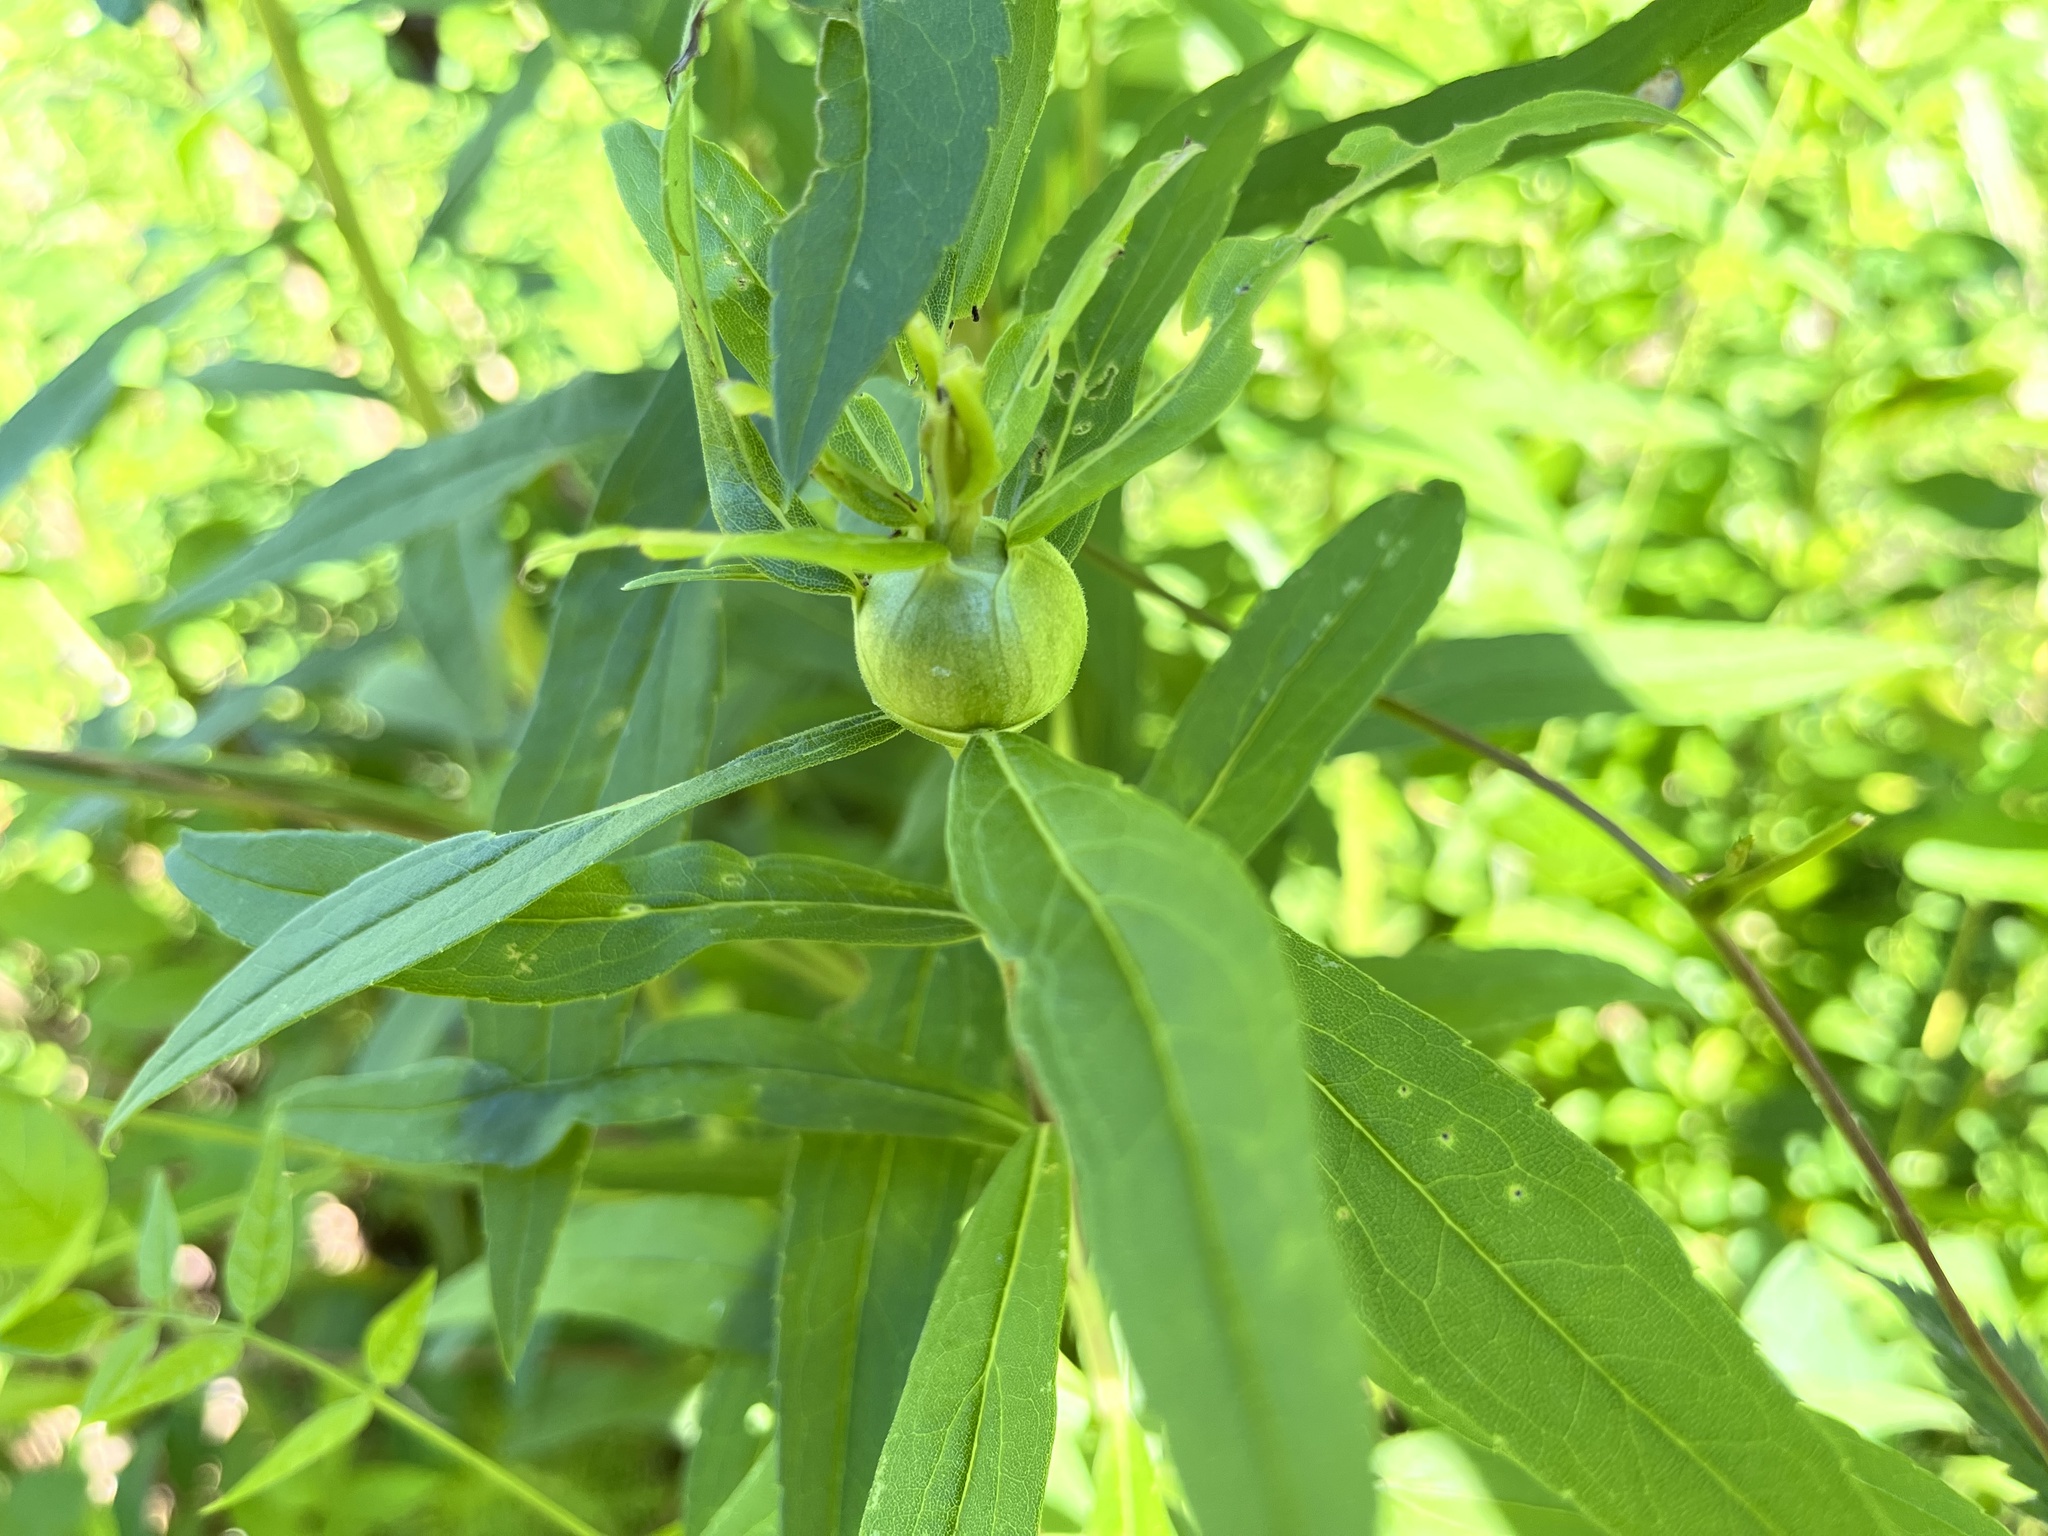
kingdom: Animalia
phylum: Arthropoda
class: Insecta
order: Diptera
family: Tephritidae
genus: Eurosta
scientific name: Eurosta solidaginis
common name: Goldenrod gall fly
